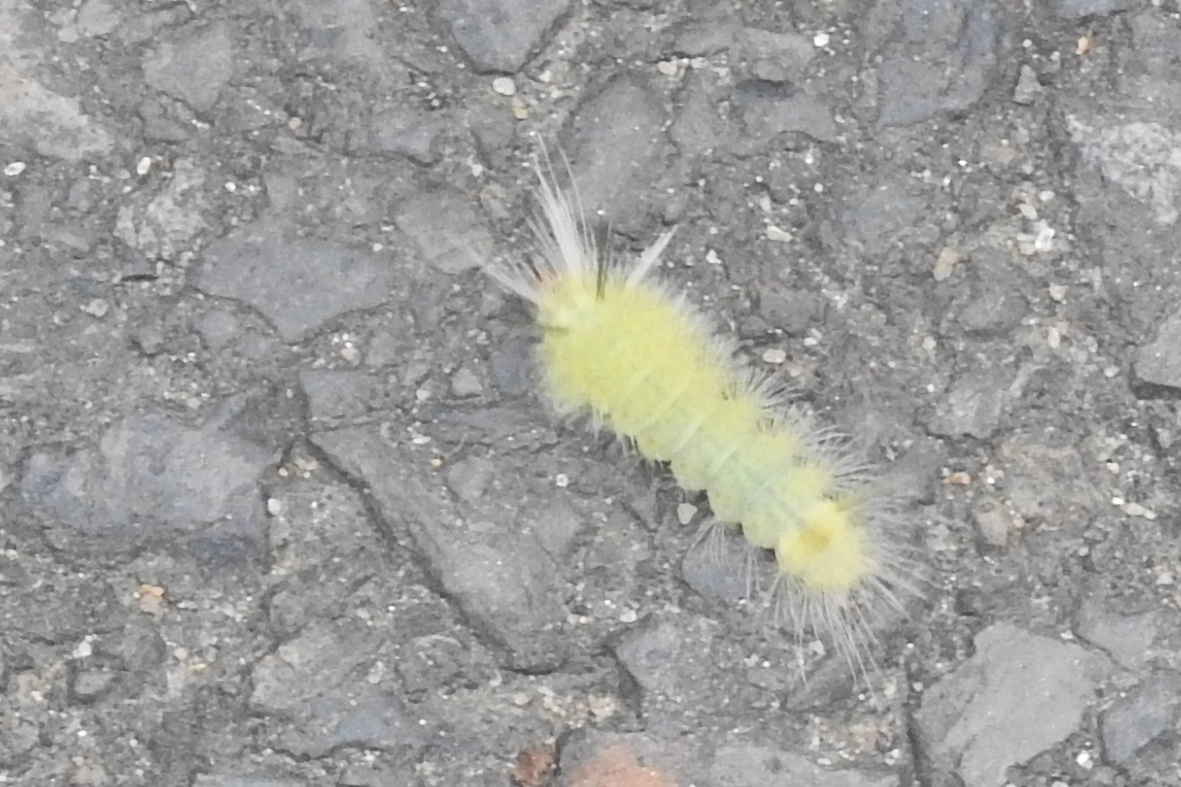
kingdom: Animalia
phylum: Arthropoda
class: Insecta
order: Lepidoptera
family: Erebidae
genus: Halysidota
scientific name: Halysidota tessellaris
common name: Banded tussock moth
